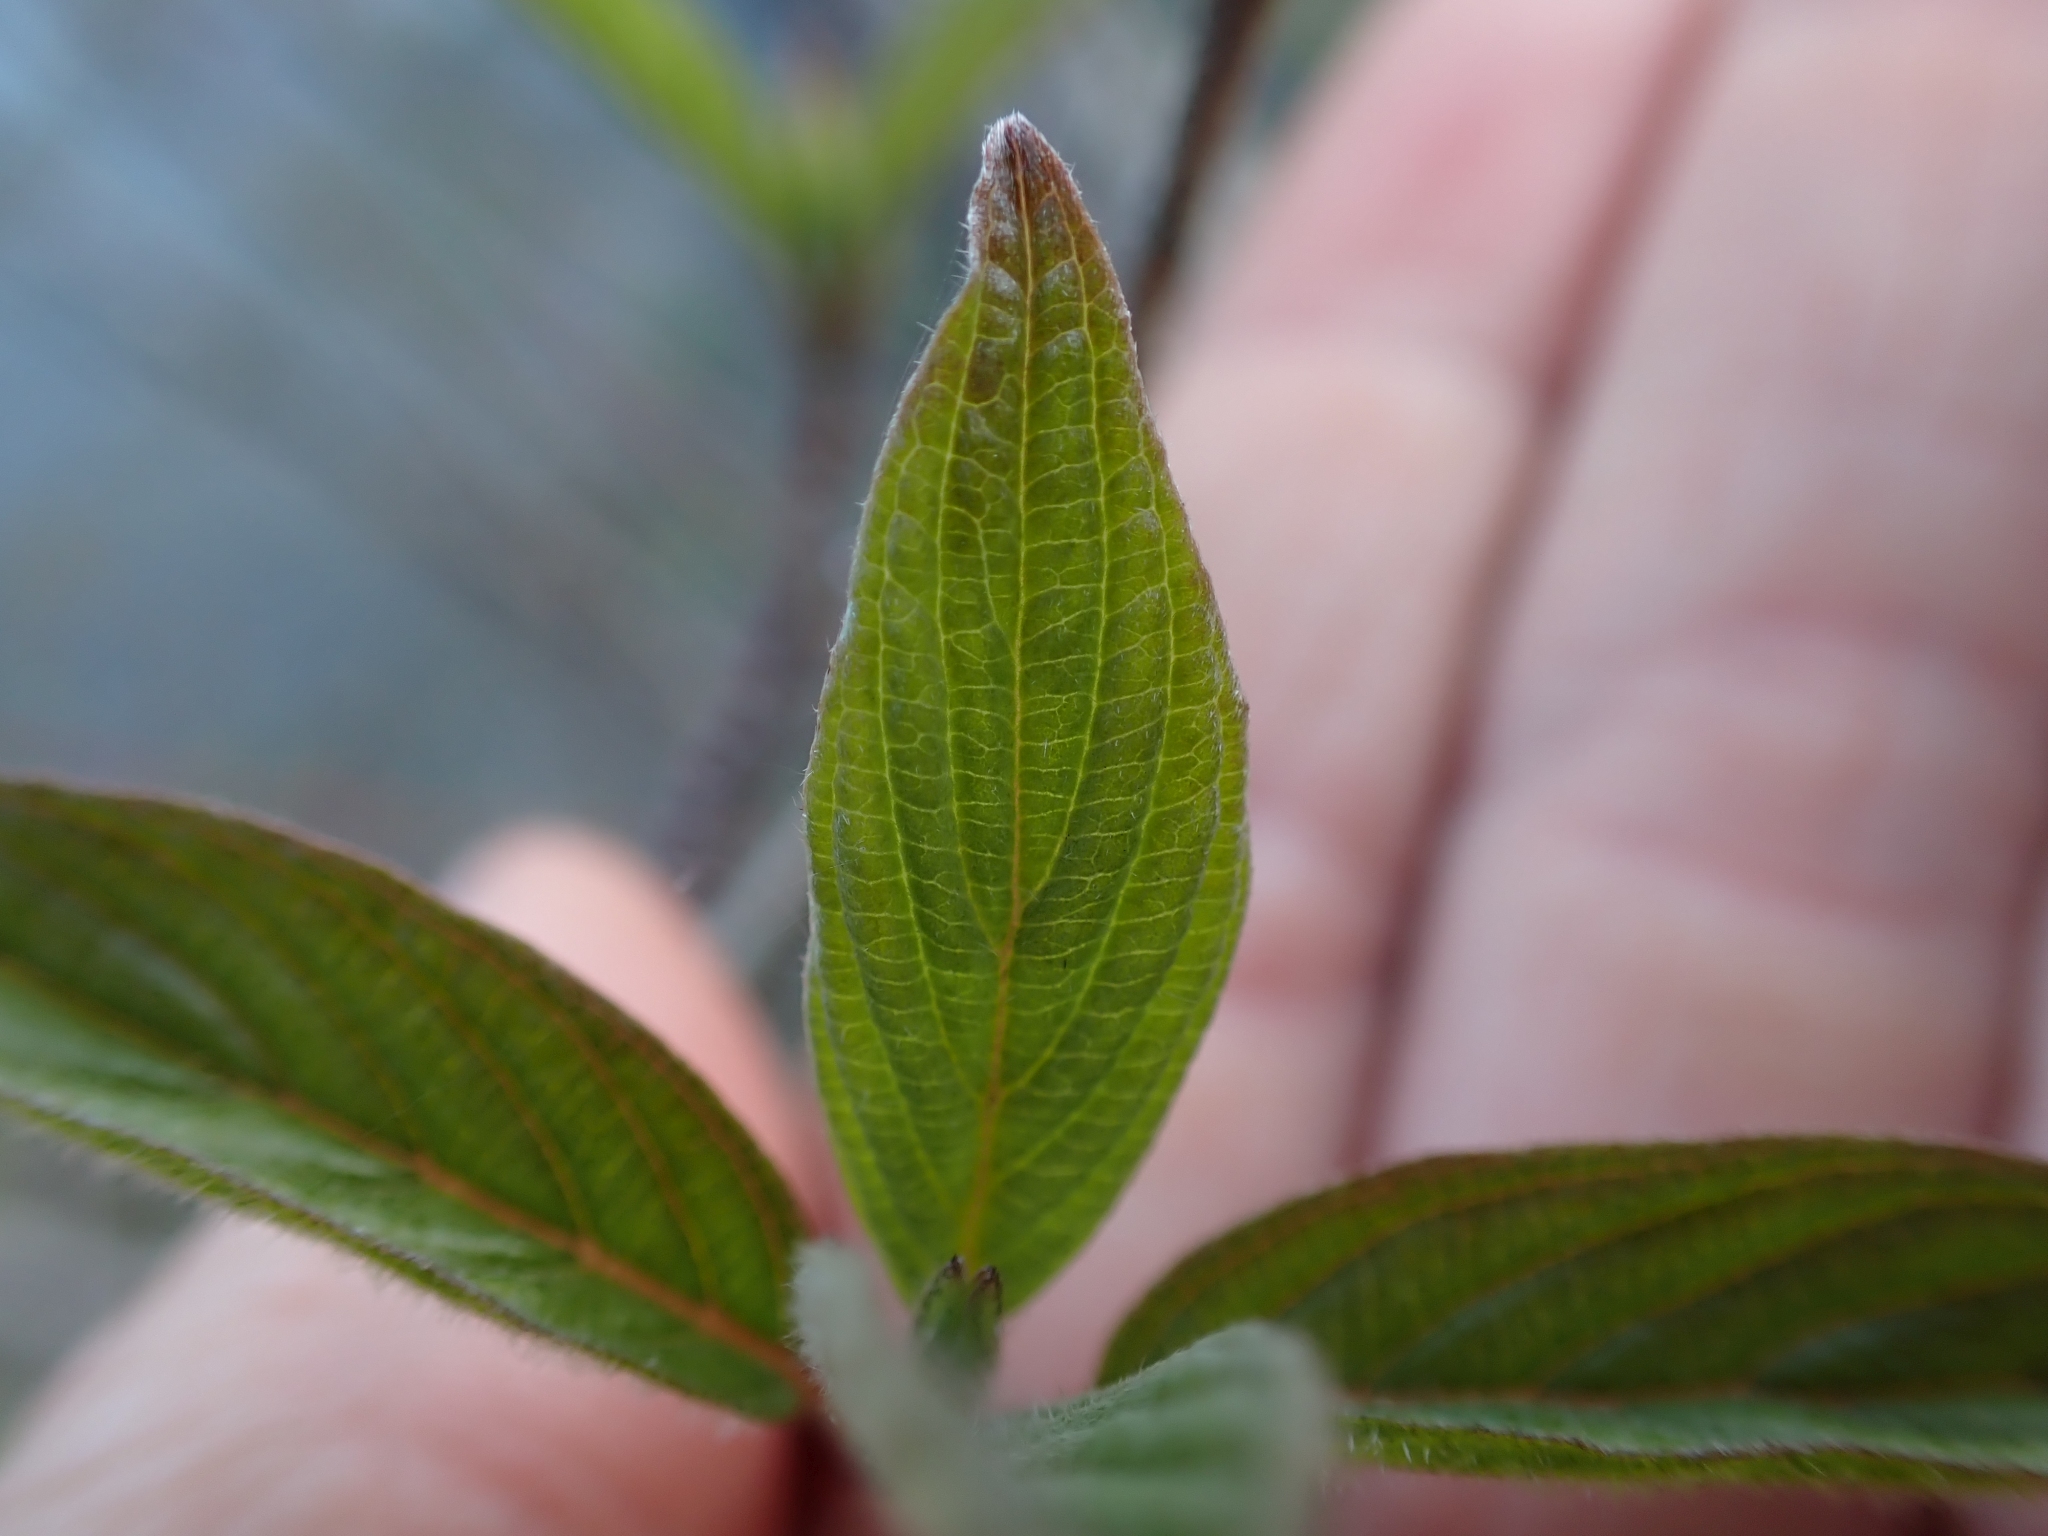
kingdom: Plantae
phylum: Tracheophyta
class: Magnoliopsida
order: Cornales
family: Cornaceae
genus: Cornus
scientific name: Cornus sericea
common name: Red-osier dogwood
